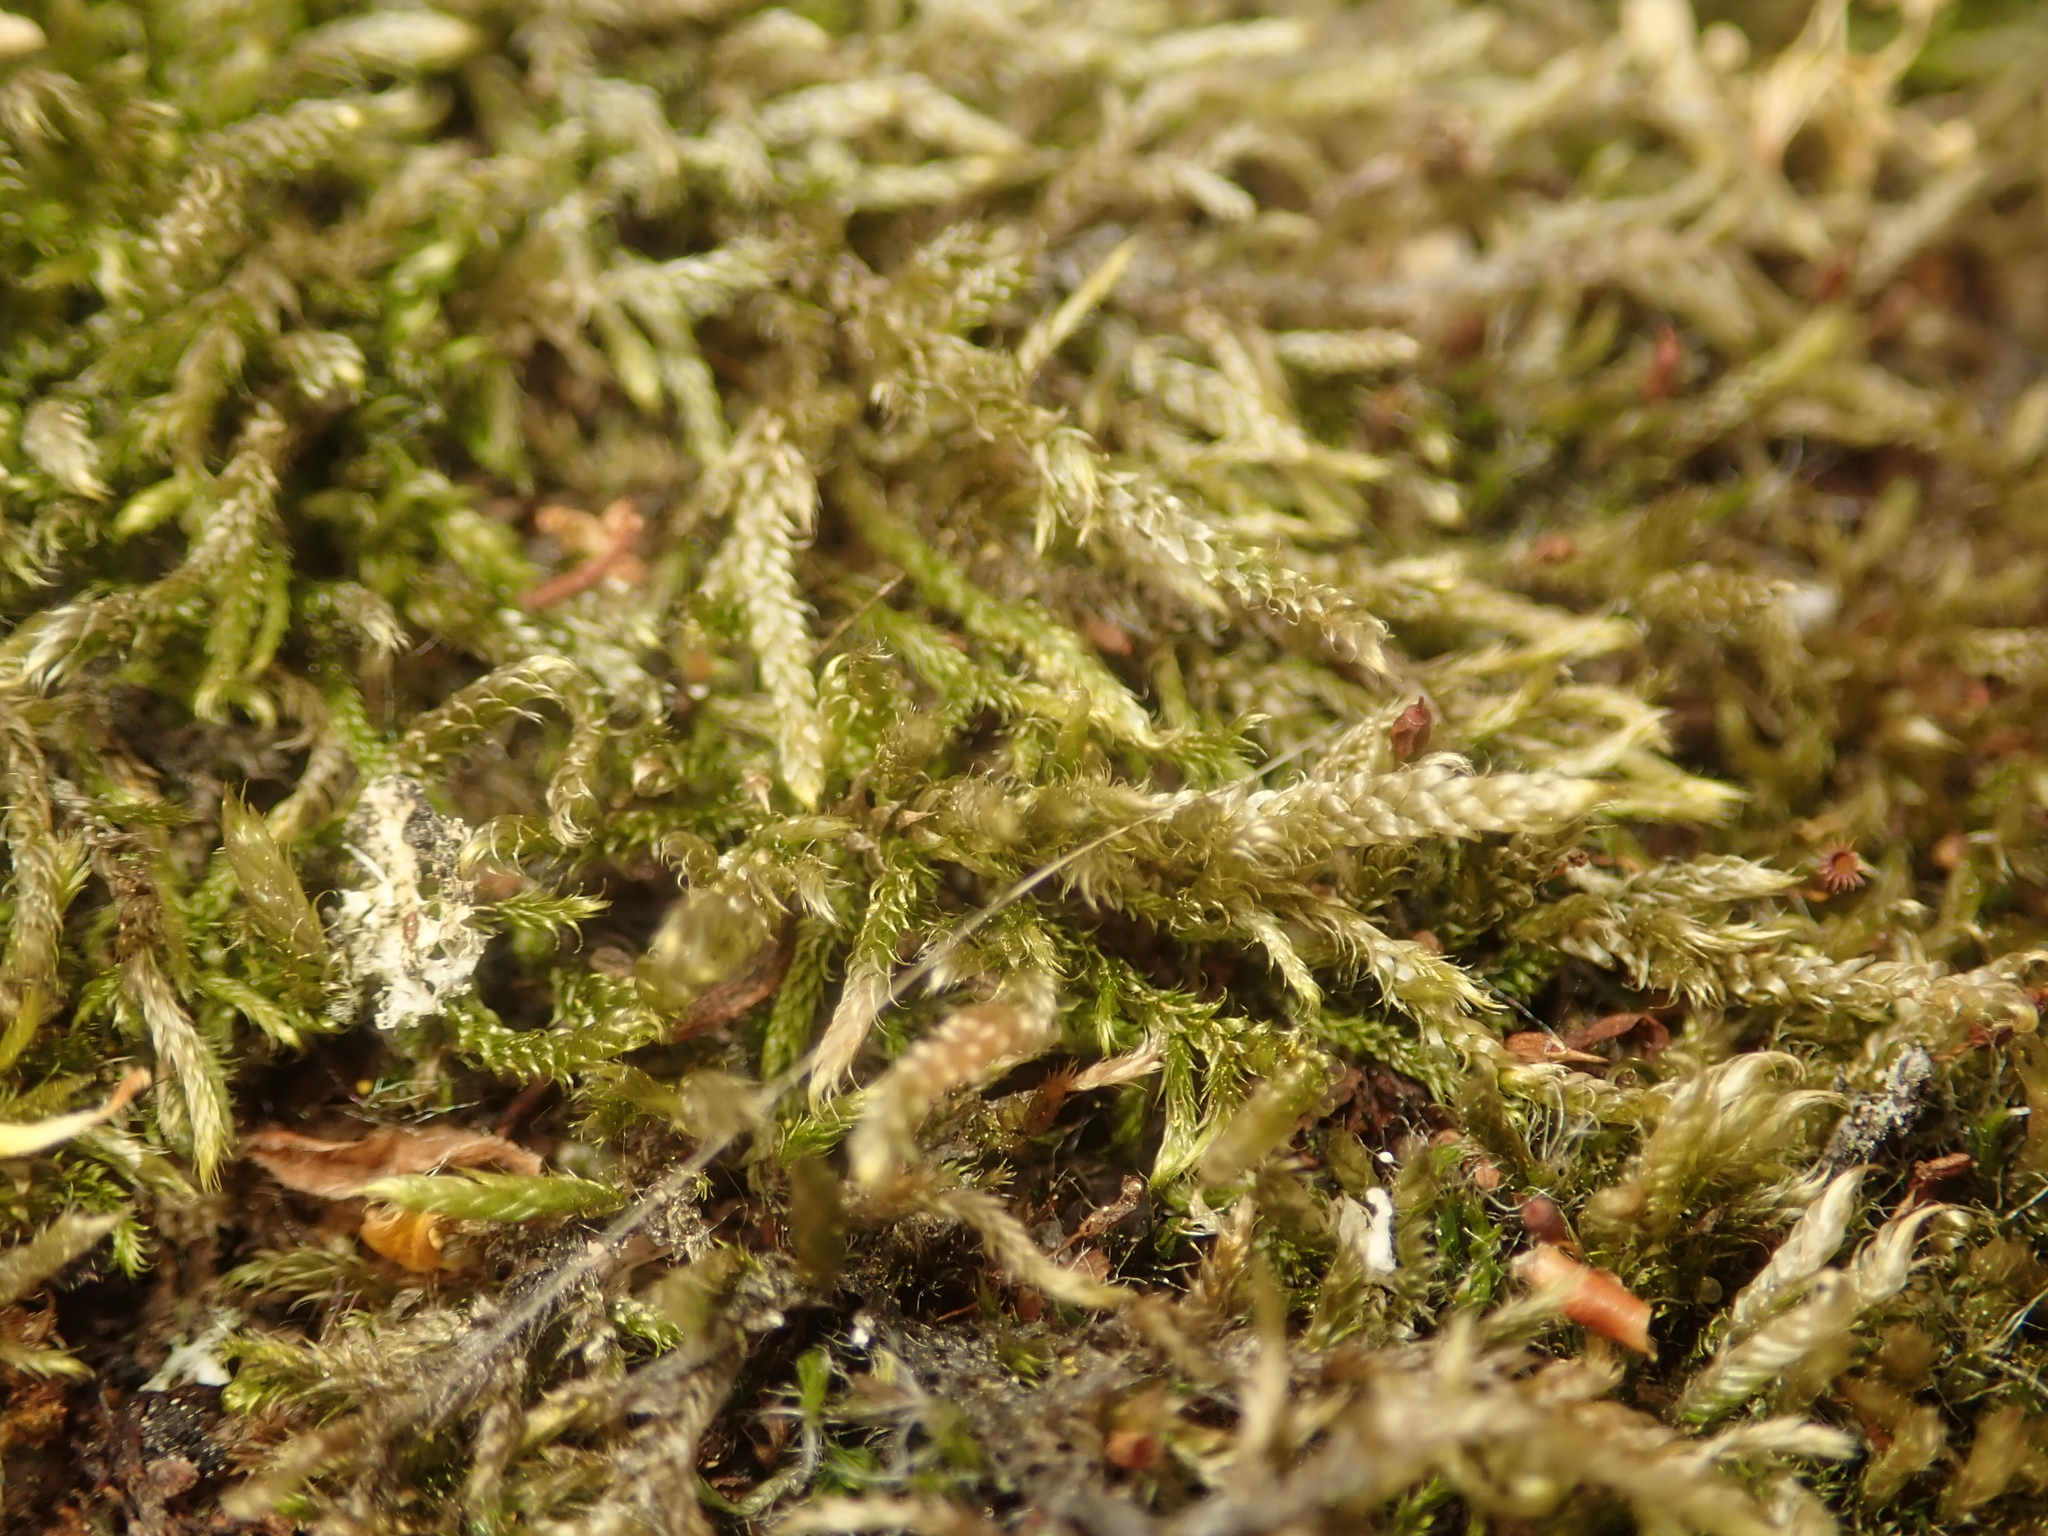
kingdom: Plantae
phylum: Bryophyta
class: Bryopsida
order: Hypnales
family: Hypnaceae
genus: Hypnum
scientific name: Hypnum cupressiforme
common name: Cypress-leaved plait-moss
